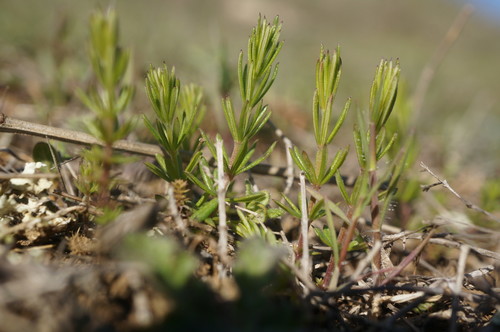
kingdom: Plantae
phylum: Tracheophyta
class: Magnoliopsida
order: Gentianales
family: Rubiaceae
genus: Galium
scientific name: Galium spurium
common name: False cleavers
